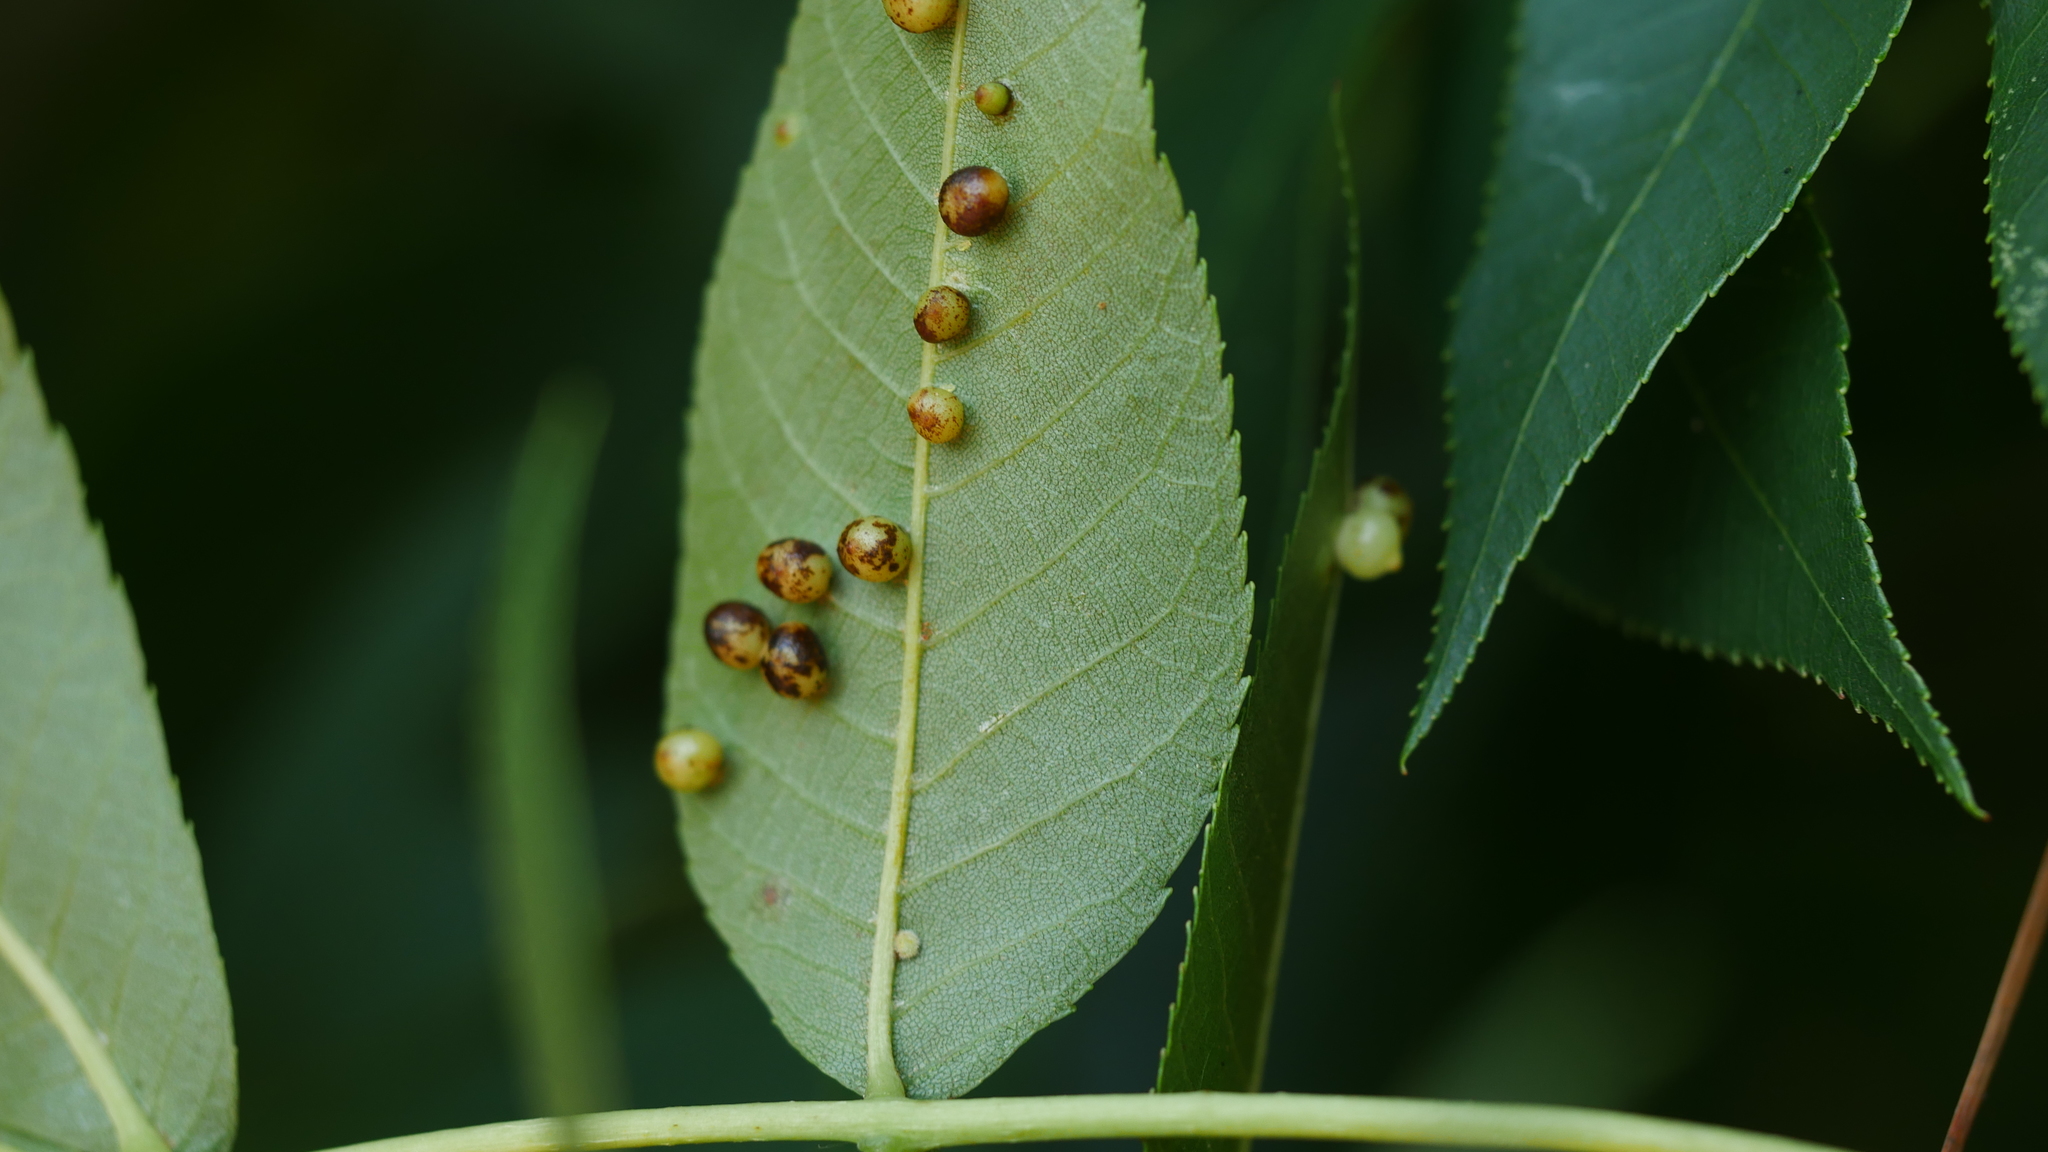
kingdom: Animalia
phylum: Arthropoda
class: Insecta
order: Diptera
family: Cecidomyiidae
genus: Caryomyia
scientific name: Caryomyia caryae
